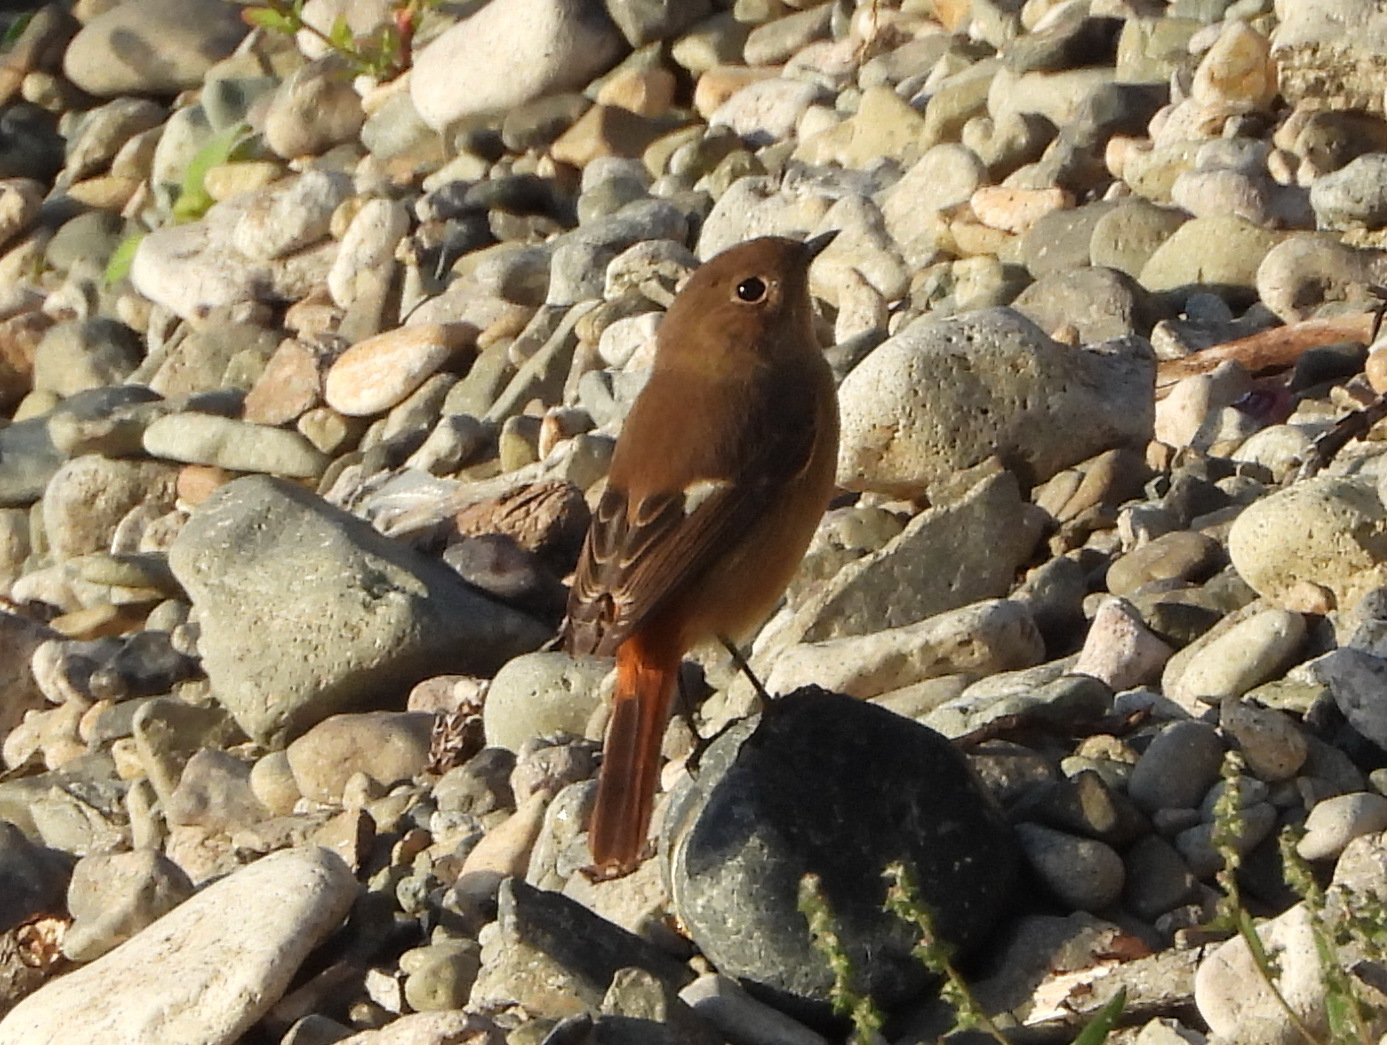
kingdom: Animalia
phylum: Chordata
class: Aves
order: Passeriformes
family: Muscicapidae
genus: Phoenicurus
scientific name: Phoenicurus auroreus
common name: Daurian redstart
